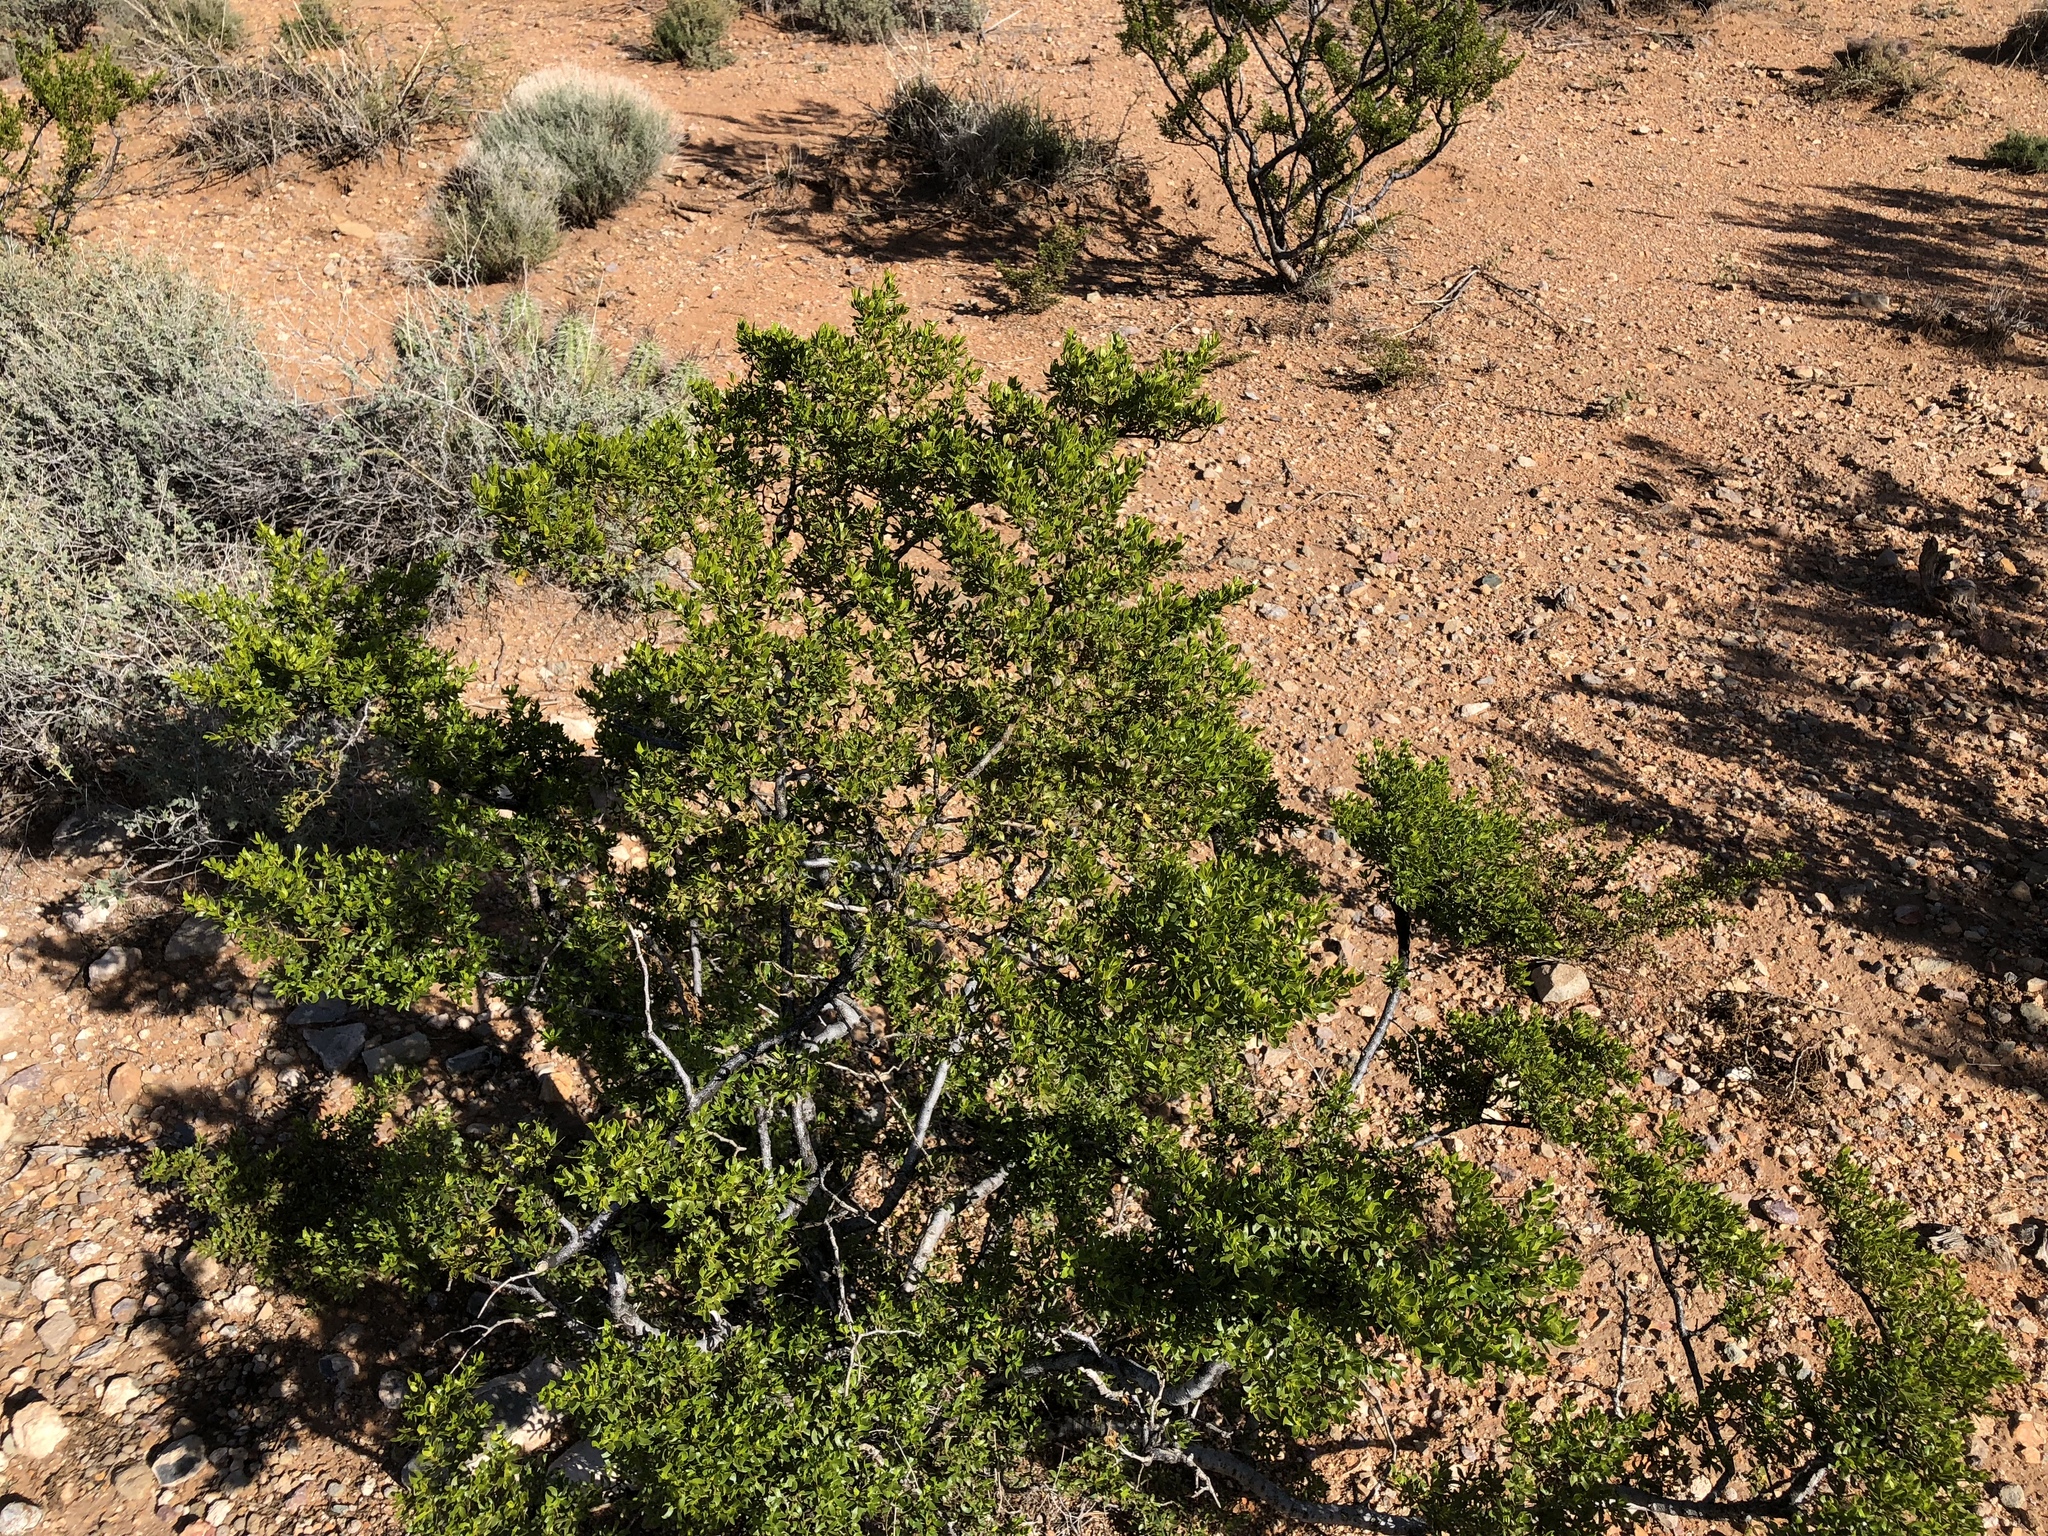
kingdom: Plantae
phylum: Tracheophyta
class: Magnoliopsida
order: Zygophyllales
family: Zygophyllaceae
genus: Larrea
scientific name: Larrea tridentata
